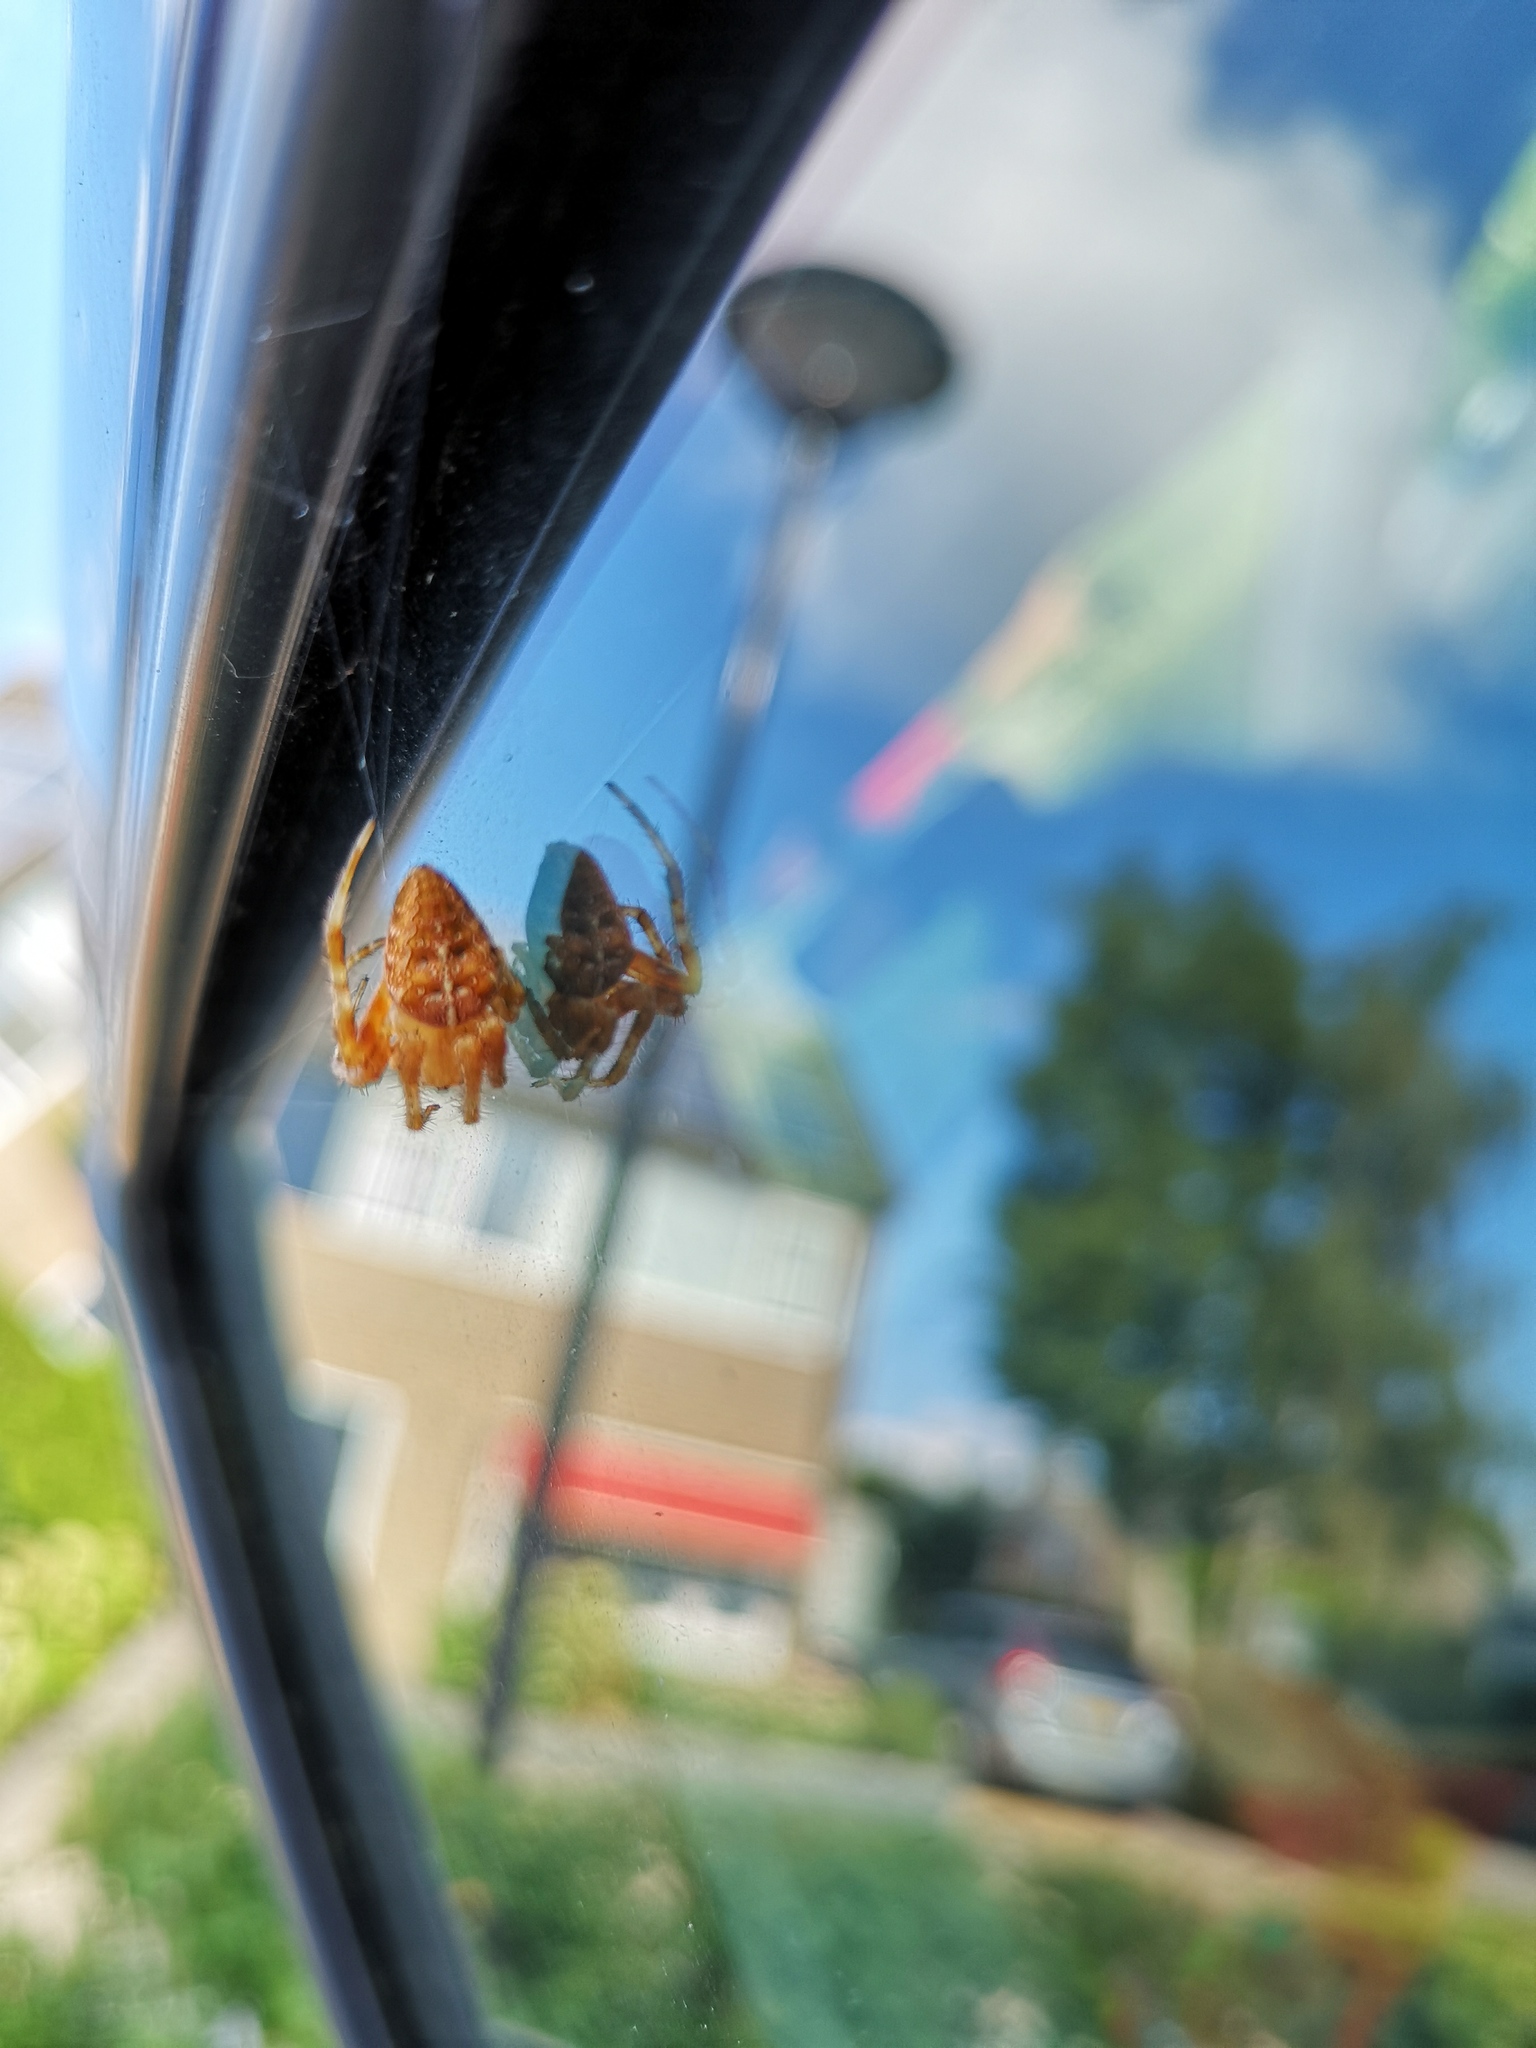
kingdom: Animalia
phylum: Arthropoda
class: Arachnida
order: Araneae
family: Araneidae
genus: Araneus
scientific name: Araneus diadematus
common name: Cross orbweaver
